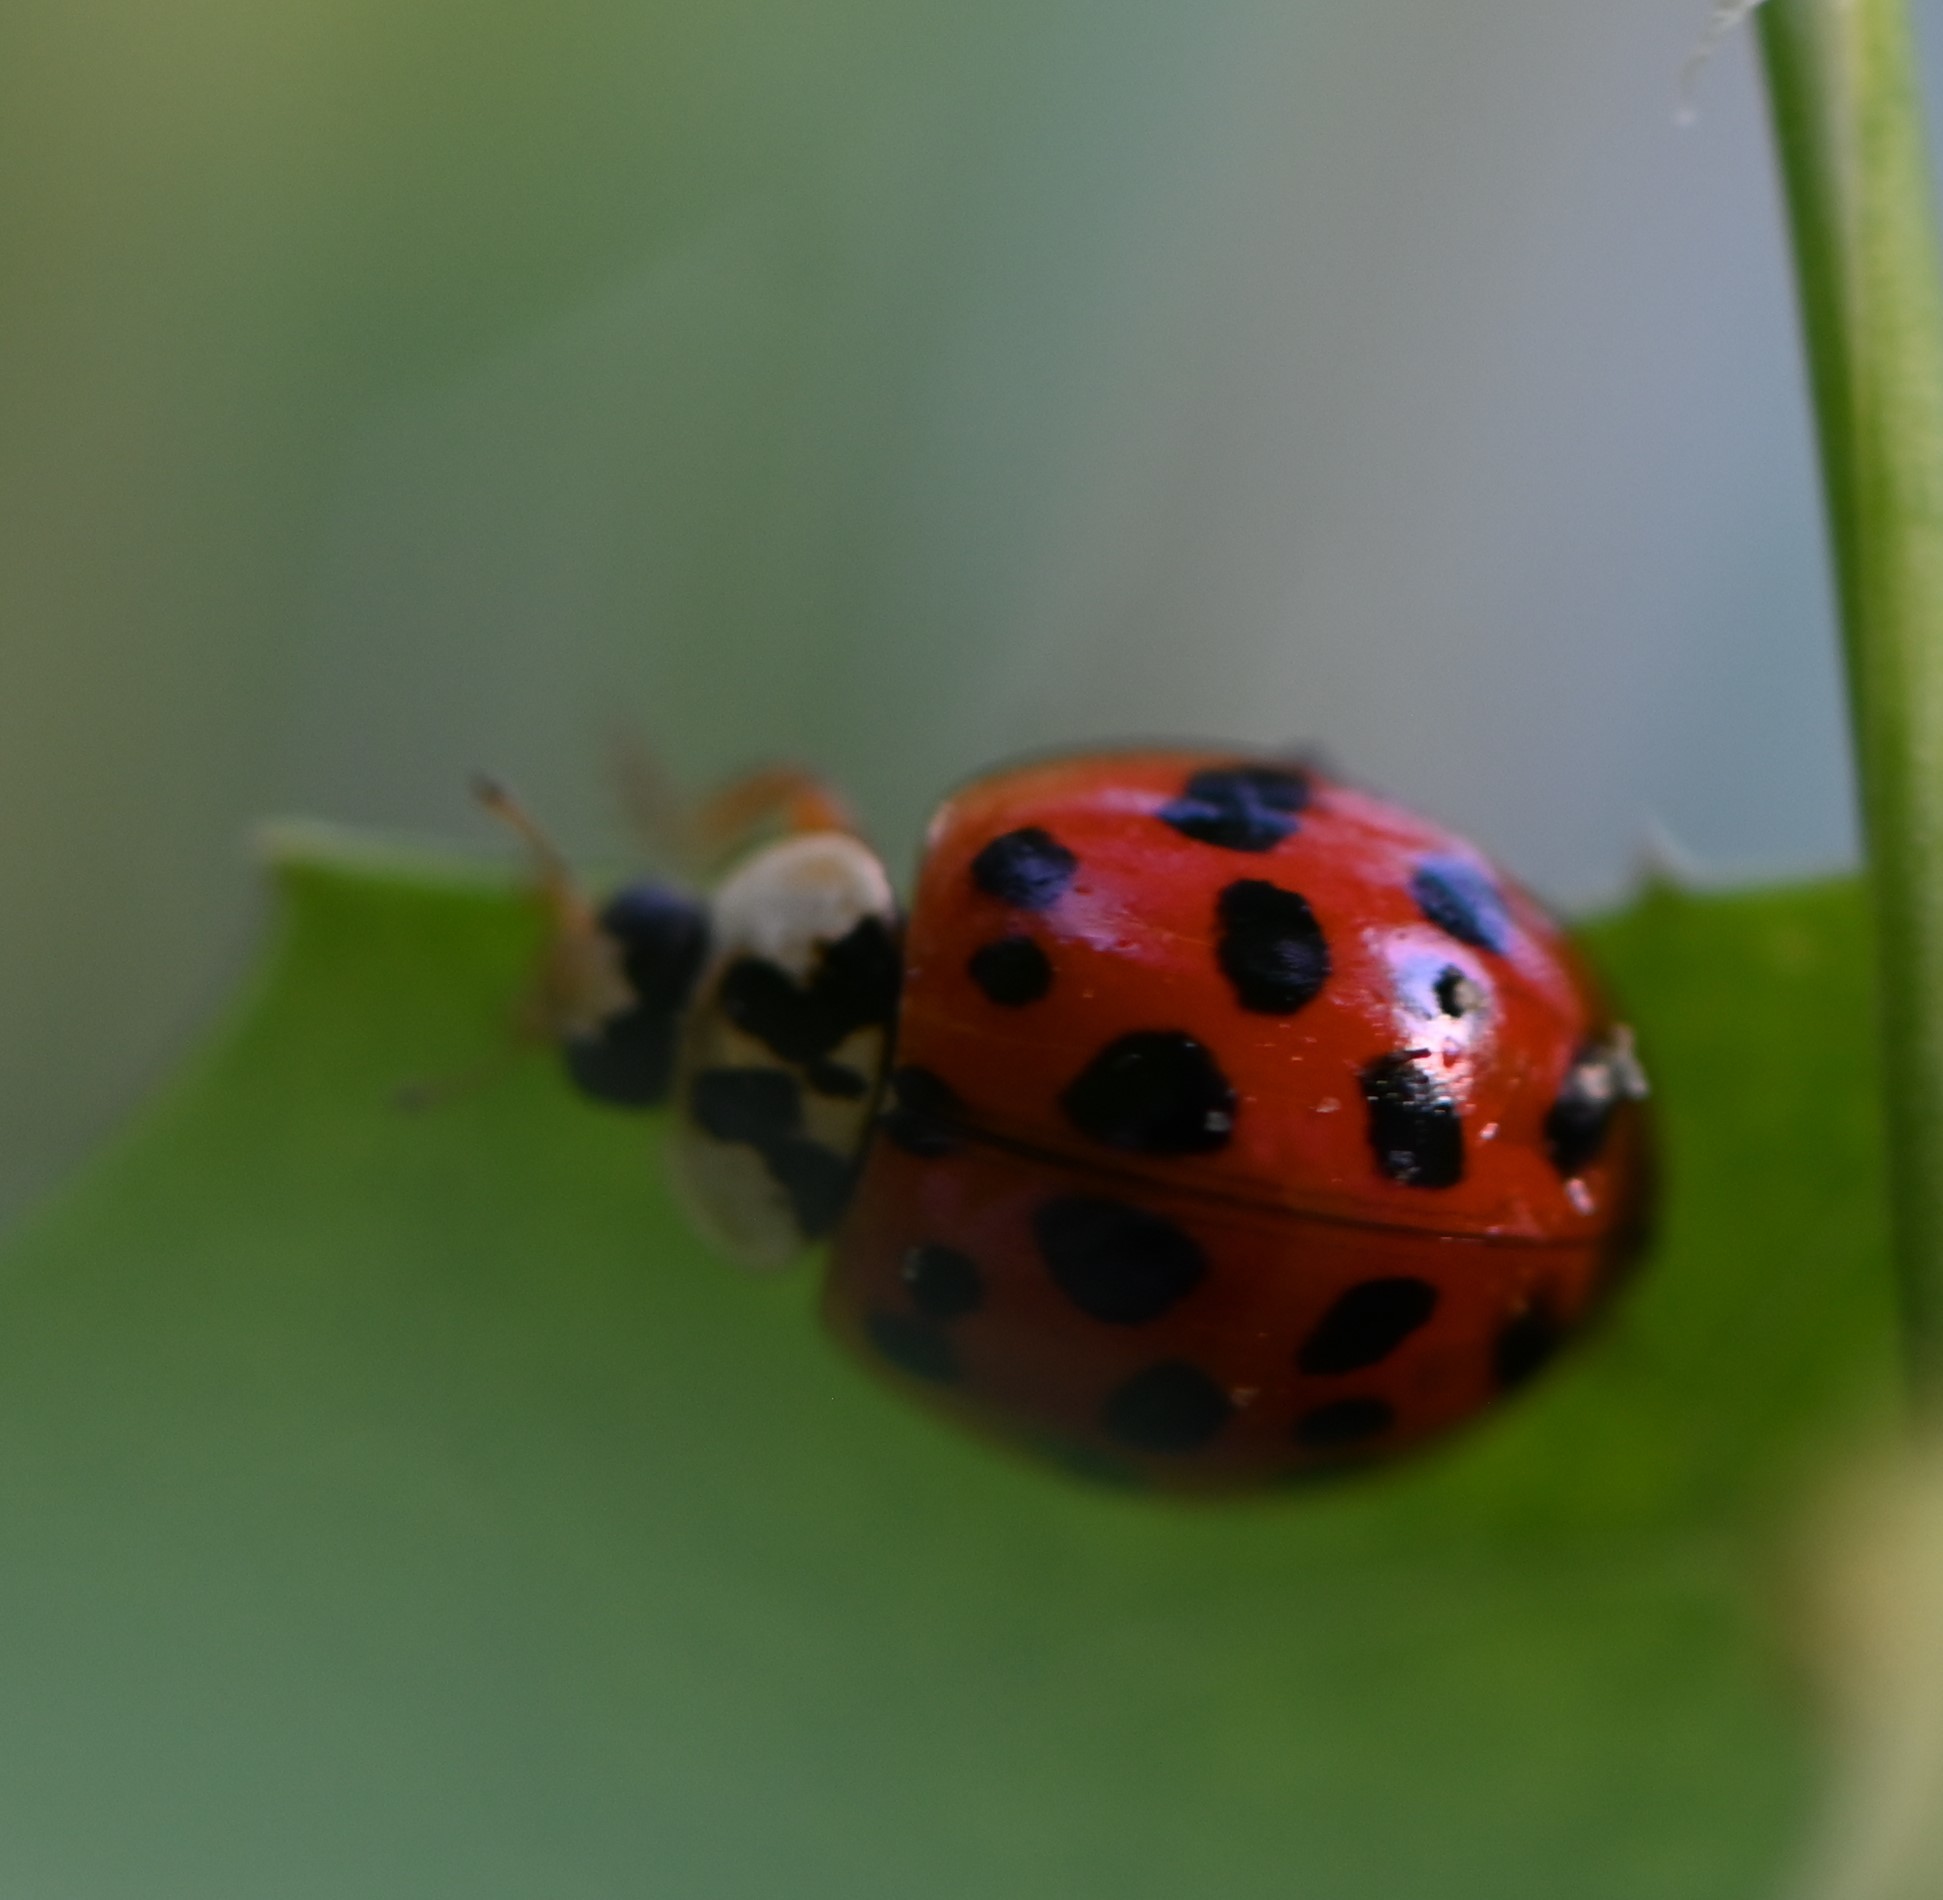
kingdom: Animalia
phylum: Arthropoda
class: Insecta
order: Coleoptera
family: Coccinellidae
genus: Harmonia
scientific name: Harmonia axyridis
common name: Harlequin ladybird
